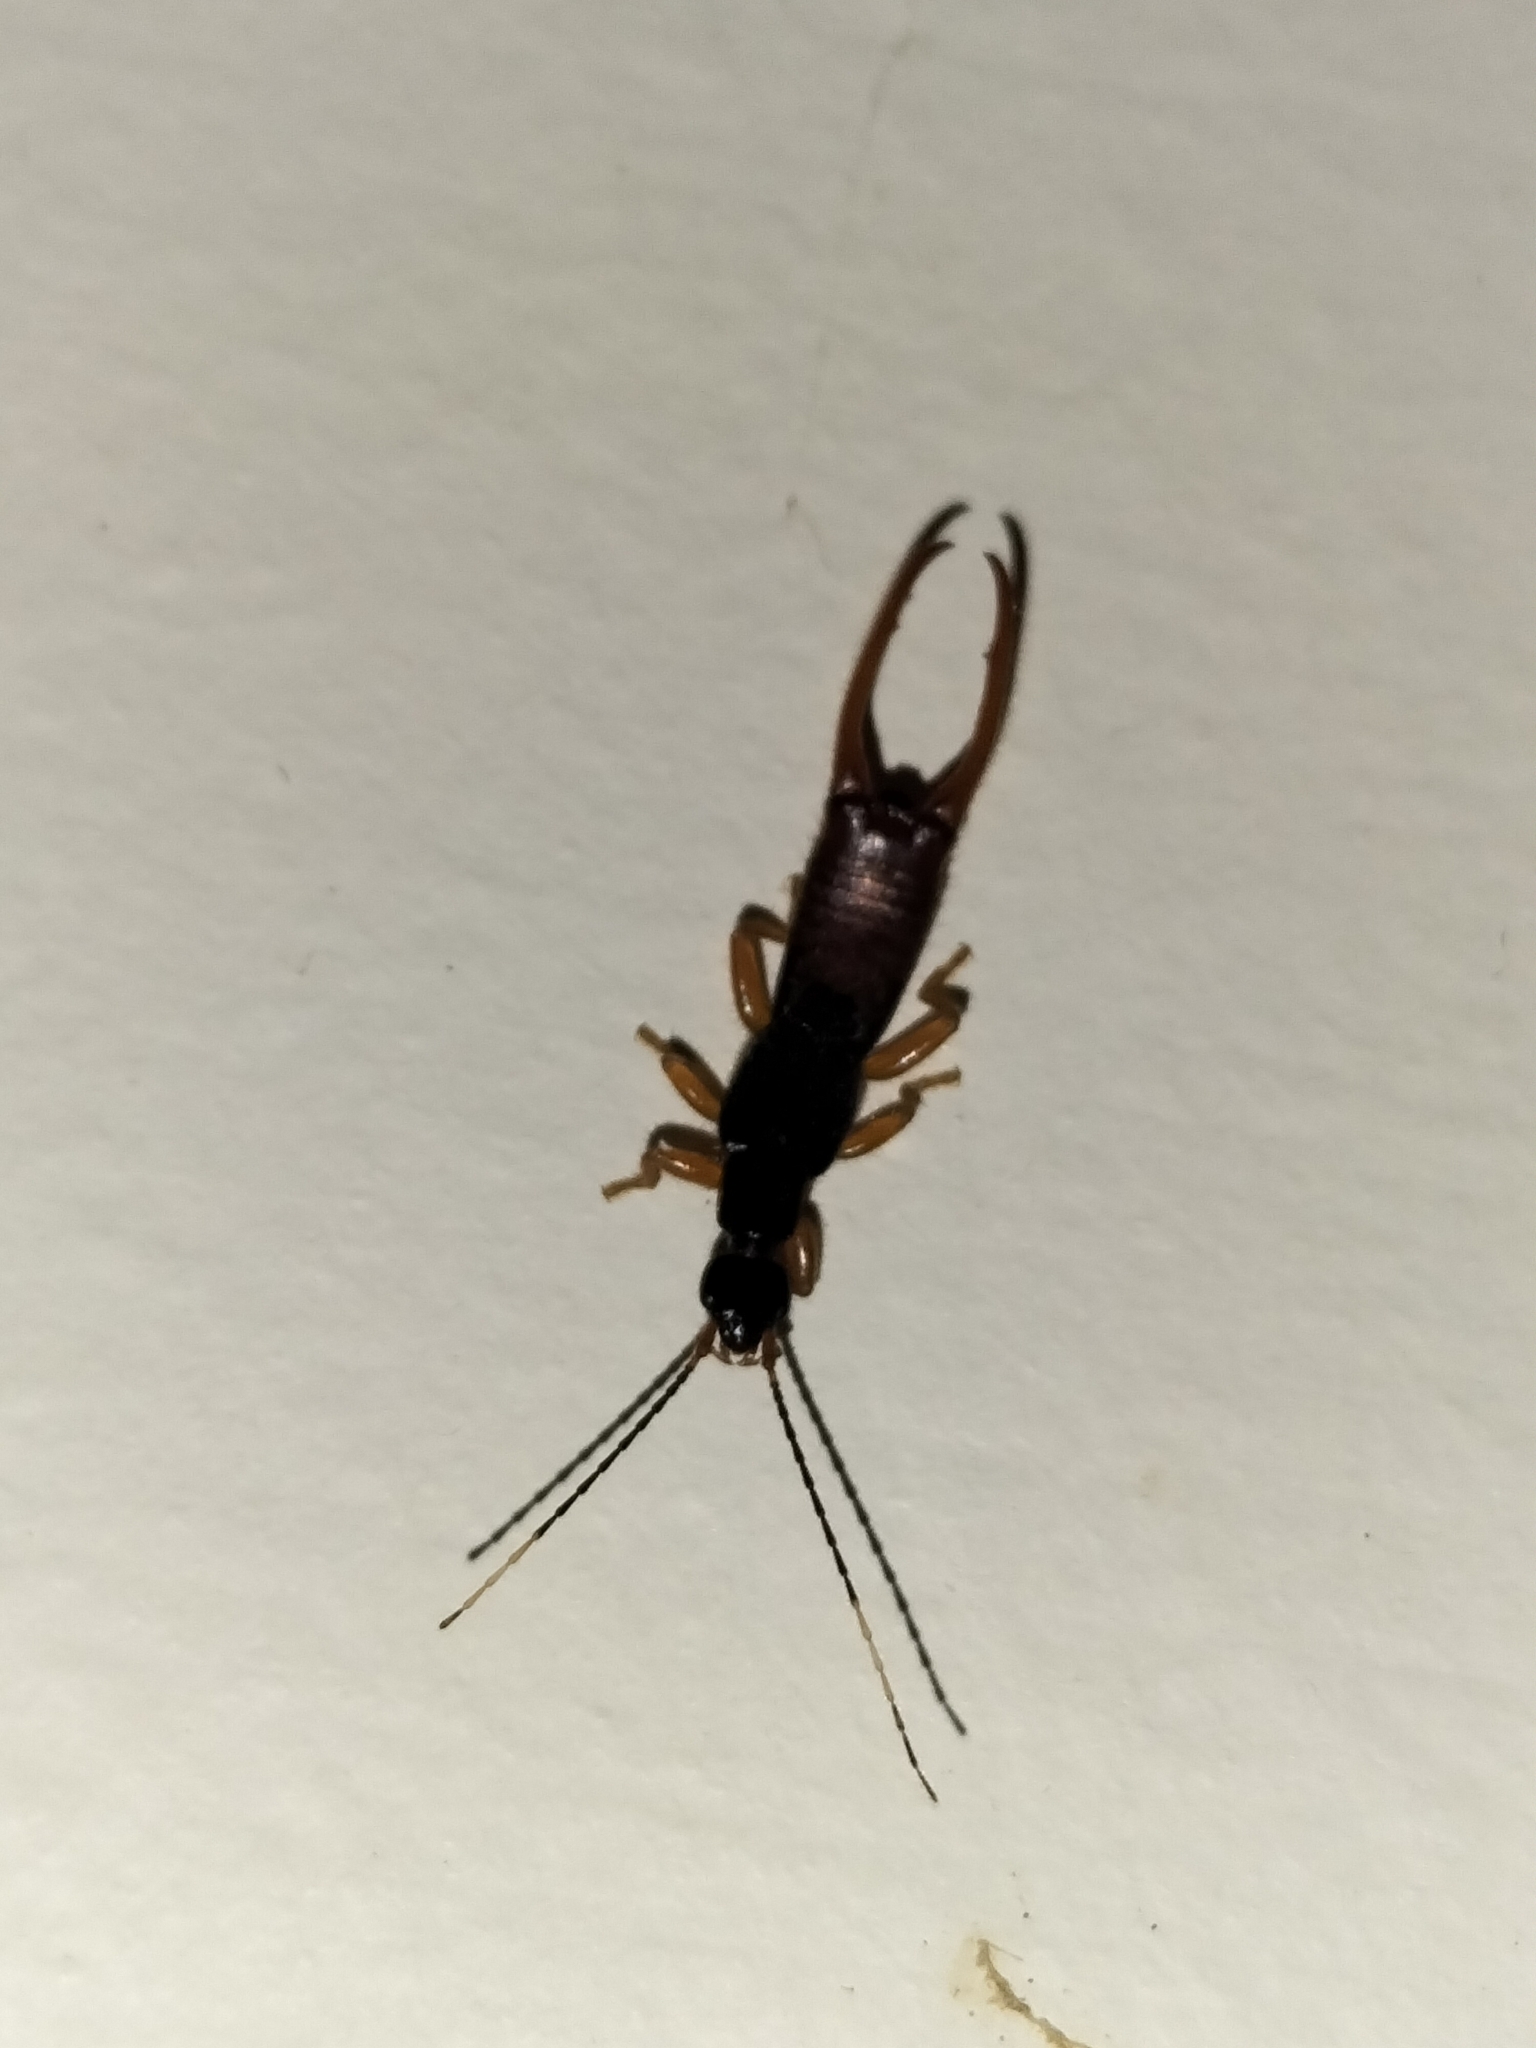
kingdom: Animalia
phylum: Arthropoda
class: Insecta
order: Dermaptera
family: Chelisochidae
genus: Hamaxas
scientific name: Hamaxas nigrorufus
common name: Earwig
